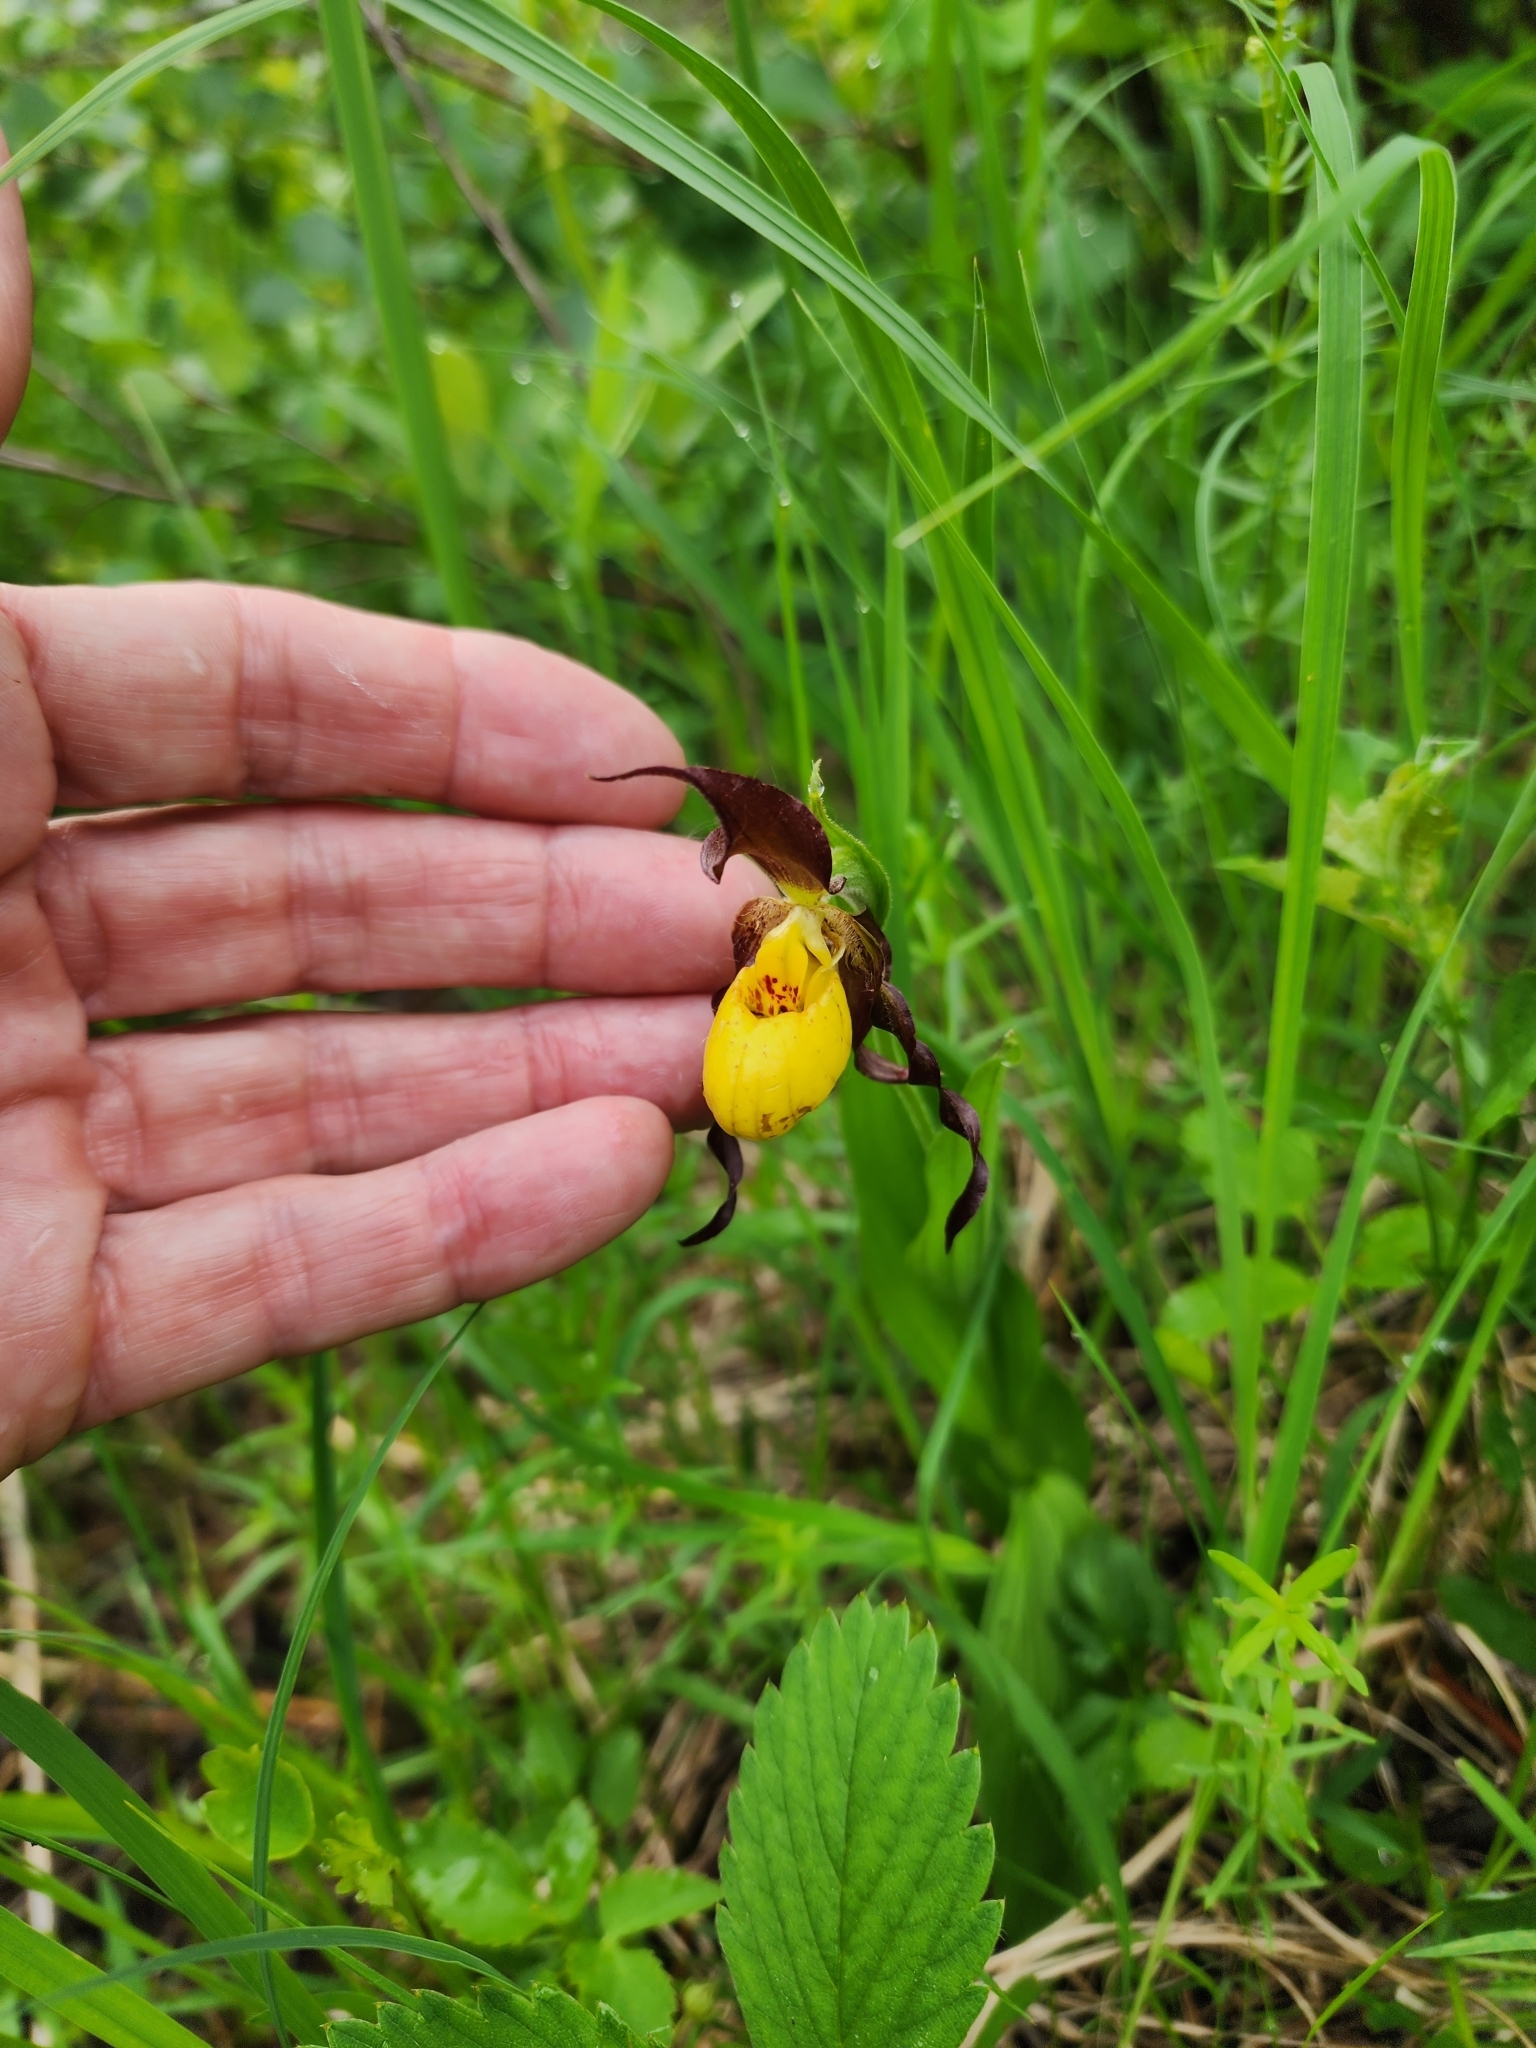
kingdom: Plantae
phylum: Tracheophyta
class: Liliopsida
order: Asparagales
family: Orchidaceae
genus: Cypripedium
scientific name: Cypripedium parviflorum
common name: American yellow lady's-slipper
